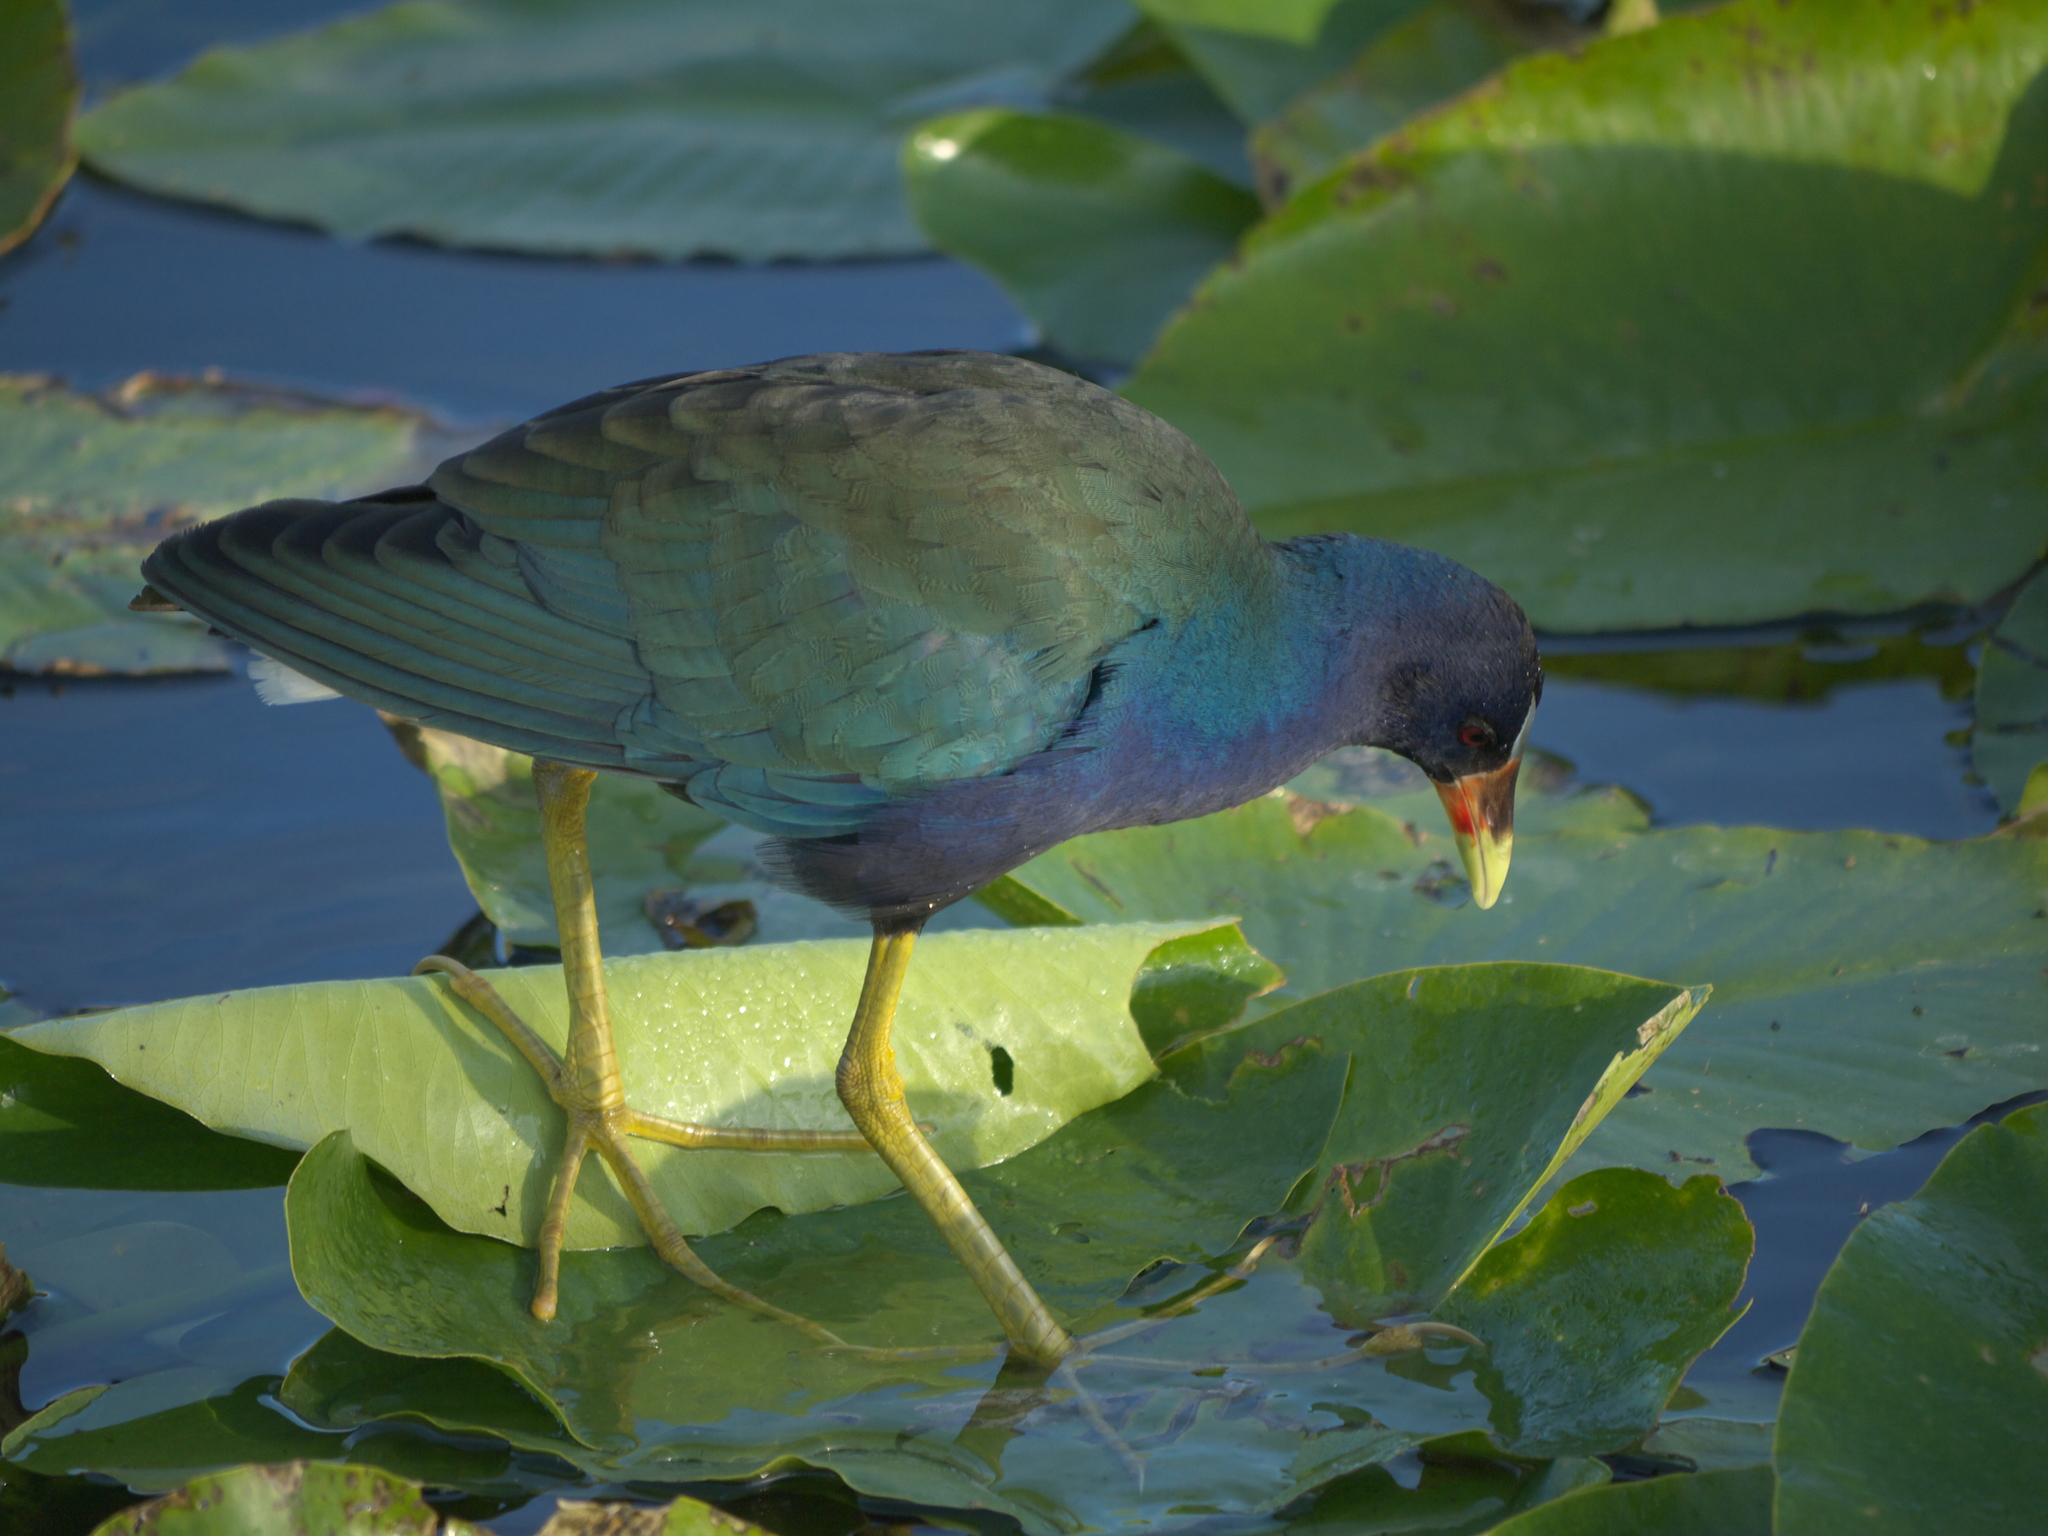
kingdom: Animalia
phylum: Chordata
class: Aves
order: Gruiformes
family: Rallidae
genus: Porphyrio
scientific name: Porphyrio martinica
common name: Purple gallinule
